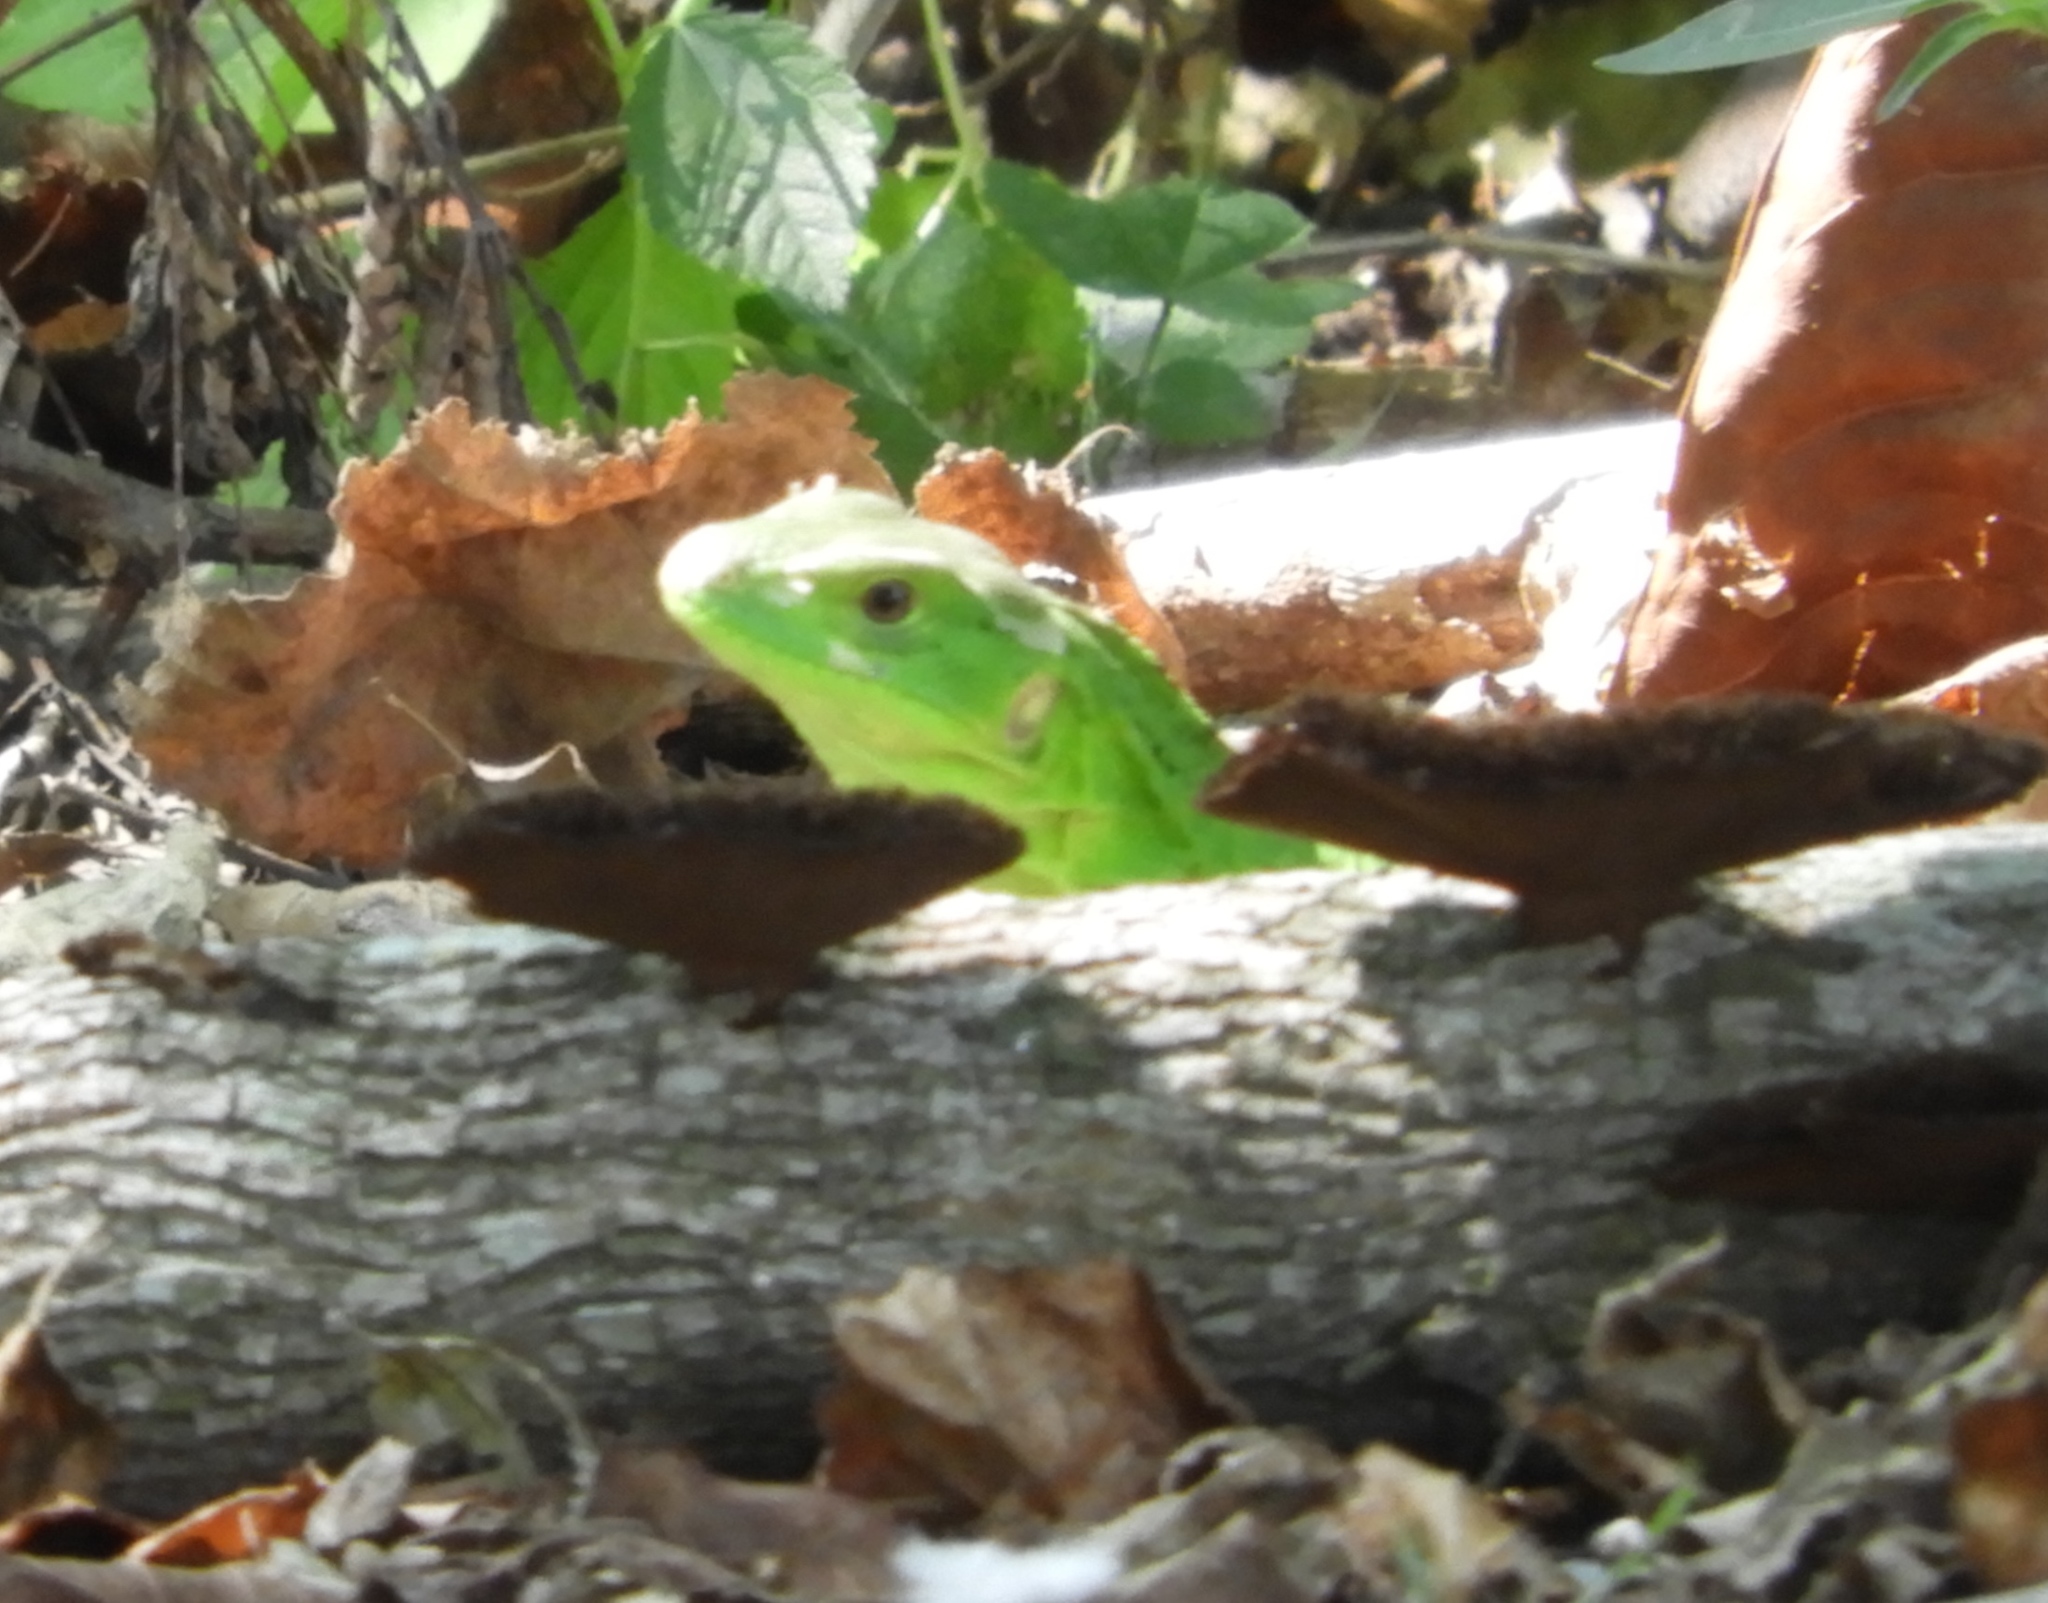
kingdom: Animalia
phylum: Chordata
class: Squamata
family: Iguanidae
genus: Ctenosaura
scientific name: Ctenosaura pectinata
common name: Guerreran spiny-tailed iguana
